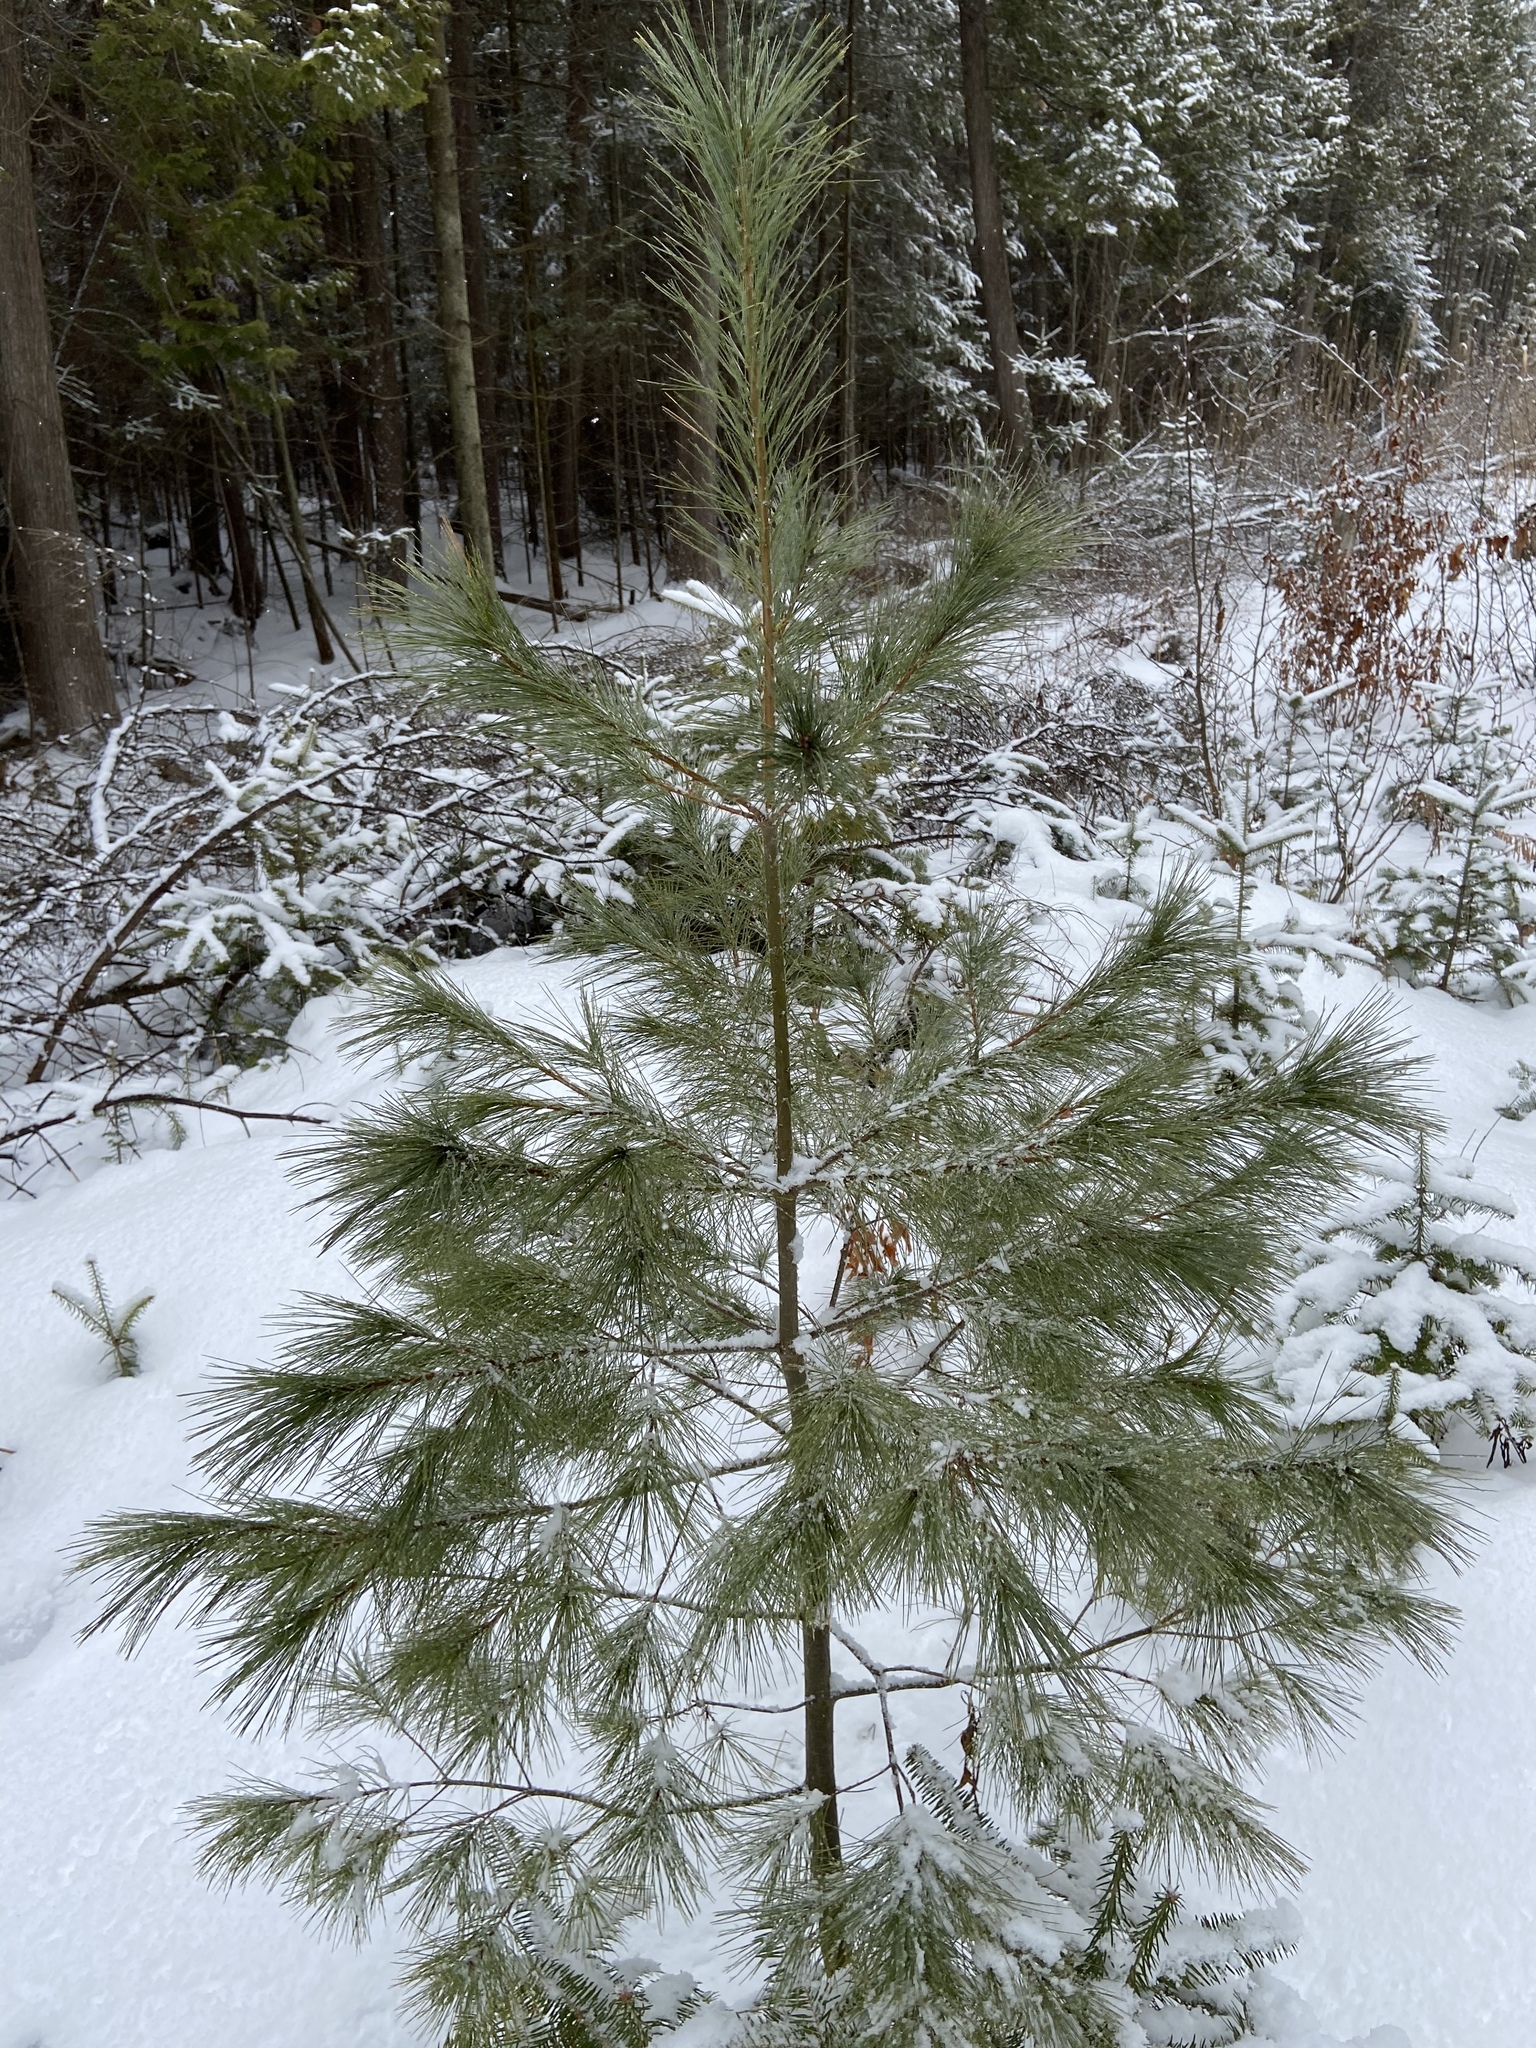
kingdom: Plantae
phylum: Tracheophyta
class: Pinopsida
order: Pinales
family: Pinaceae
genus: Pinus
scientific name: Pinus strobus
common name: Weymouth pine
